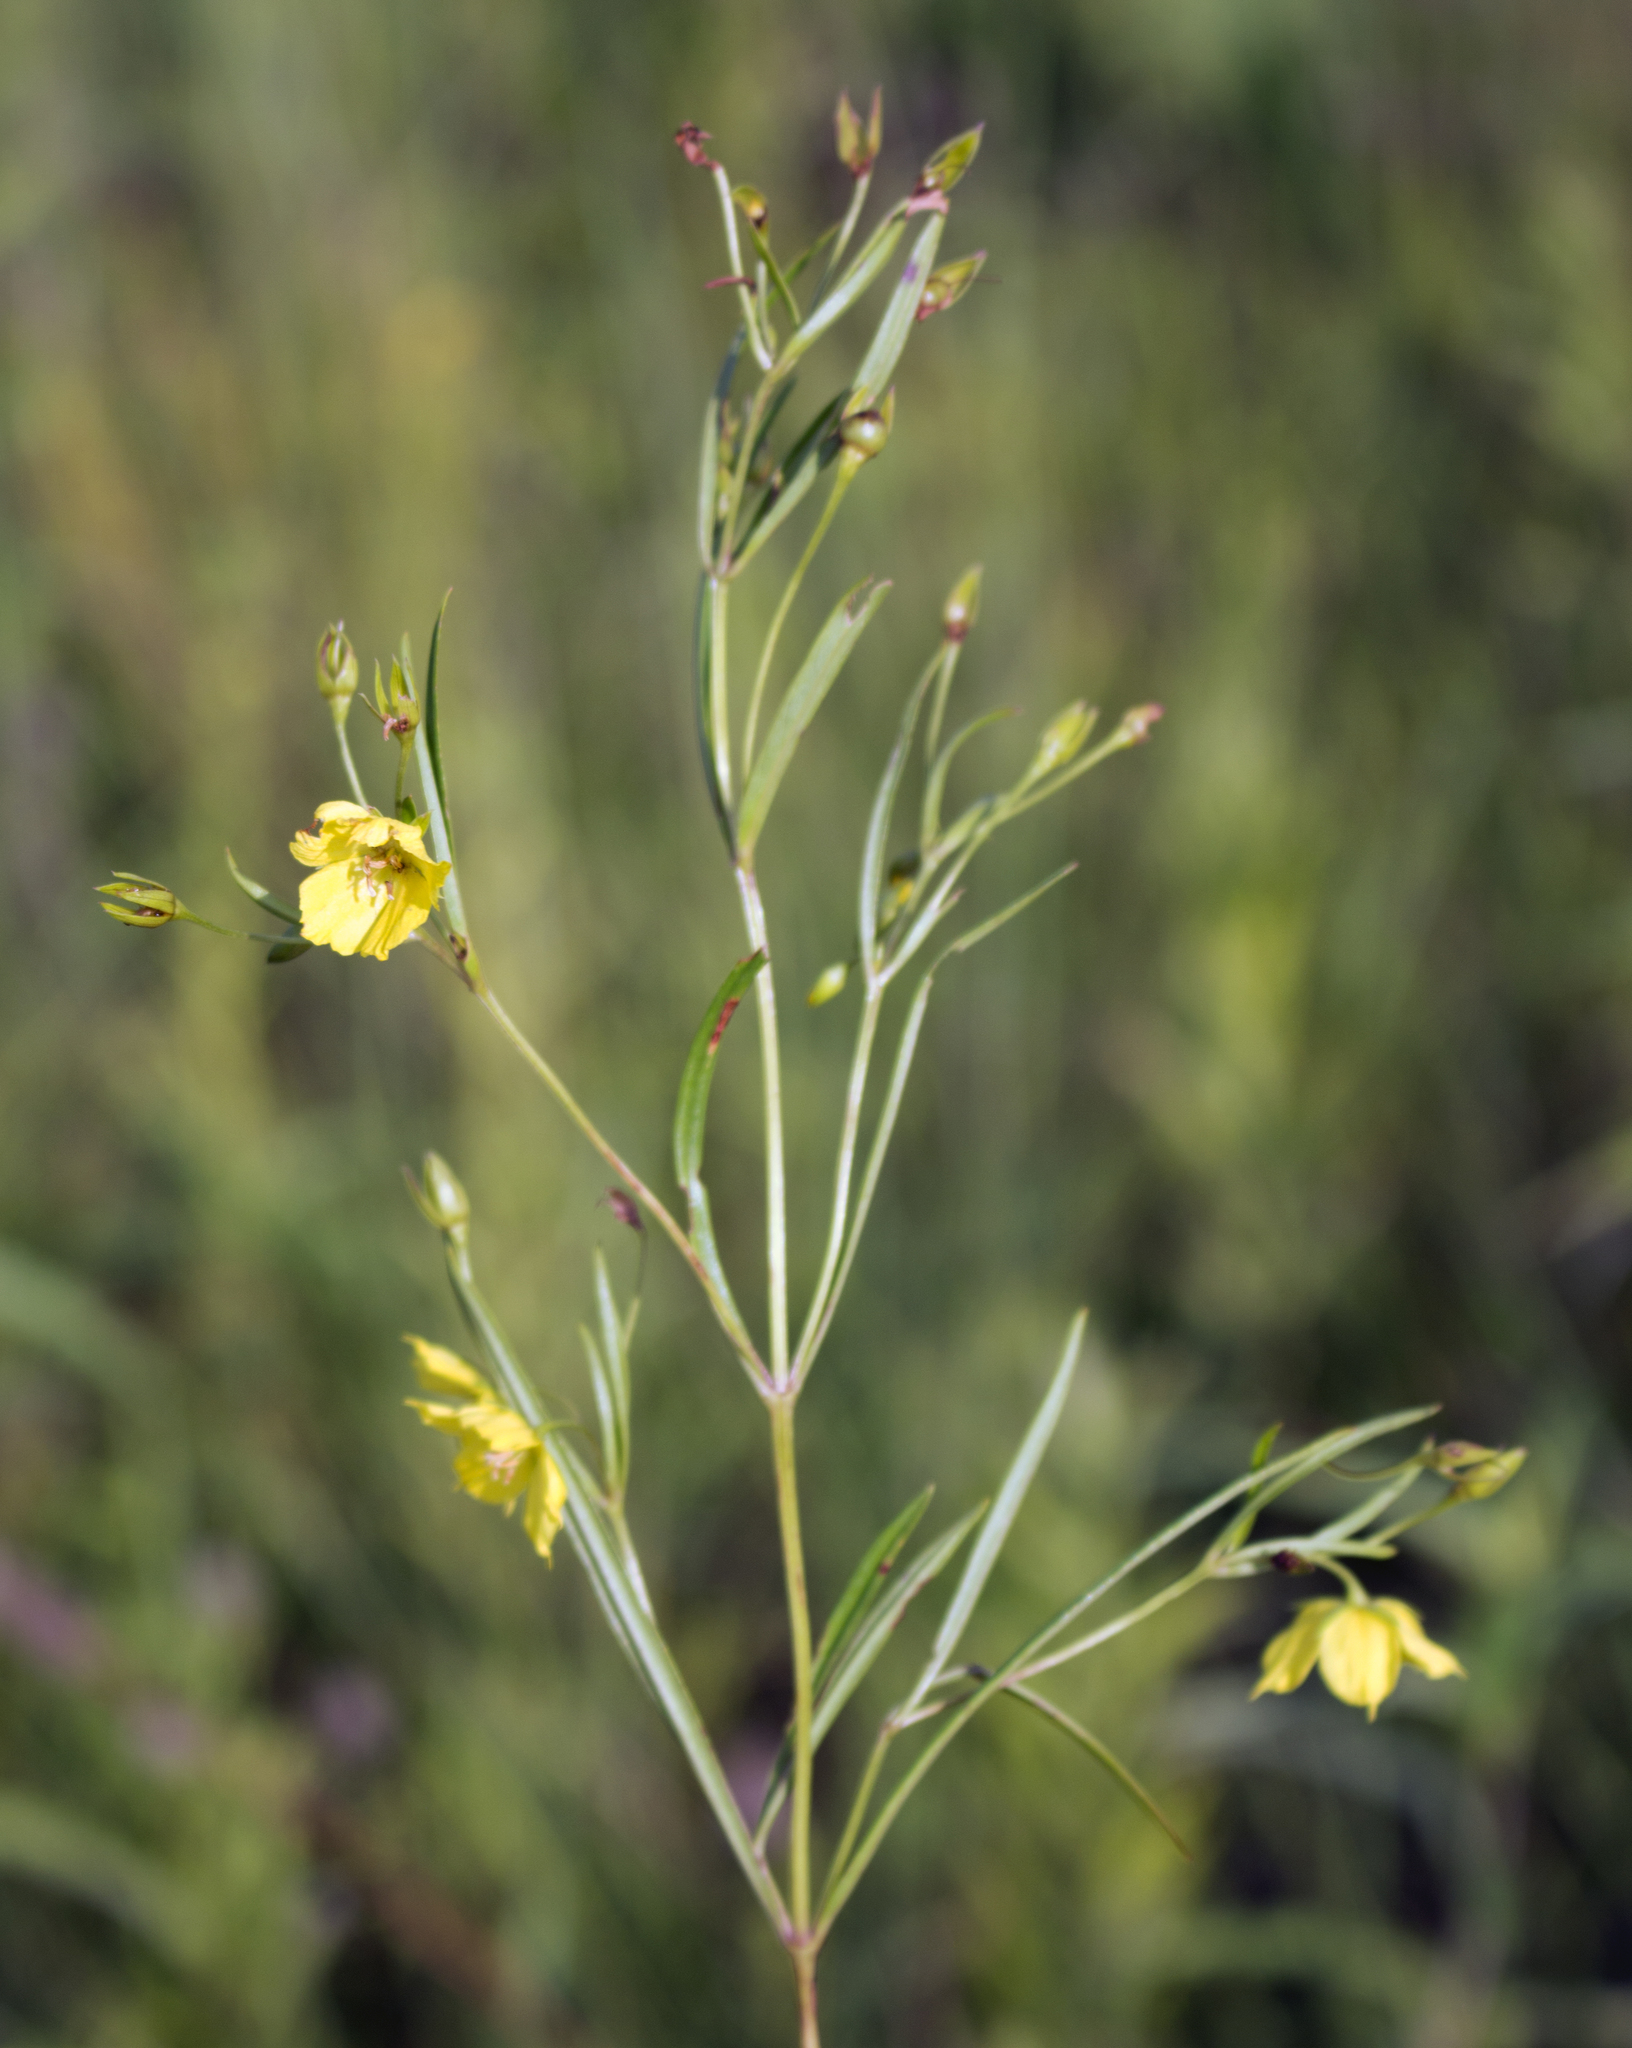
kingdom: Plantae
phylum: Tracheophyta
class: Magnoliopsida
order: Ericales
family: Primulaceae
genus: Lysimachia
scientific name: Lysimachia quadriflora
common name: Four-flowered loosestrife
